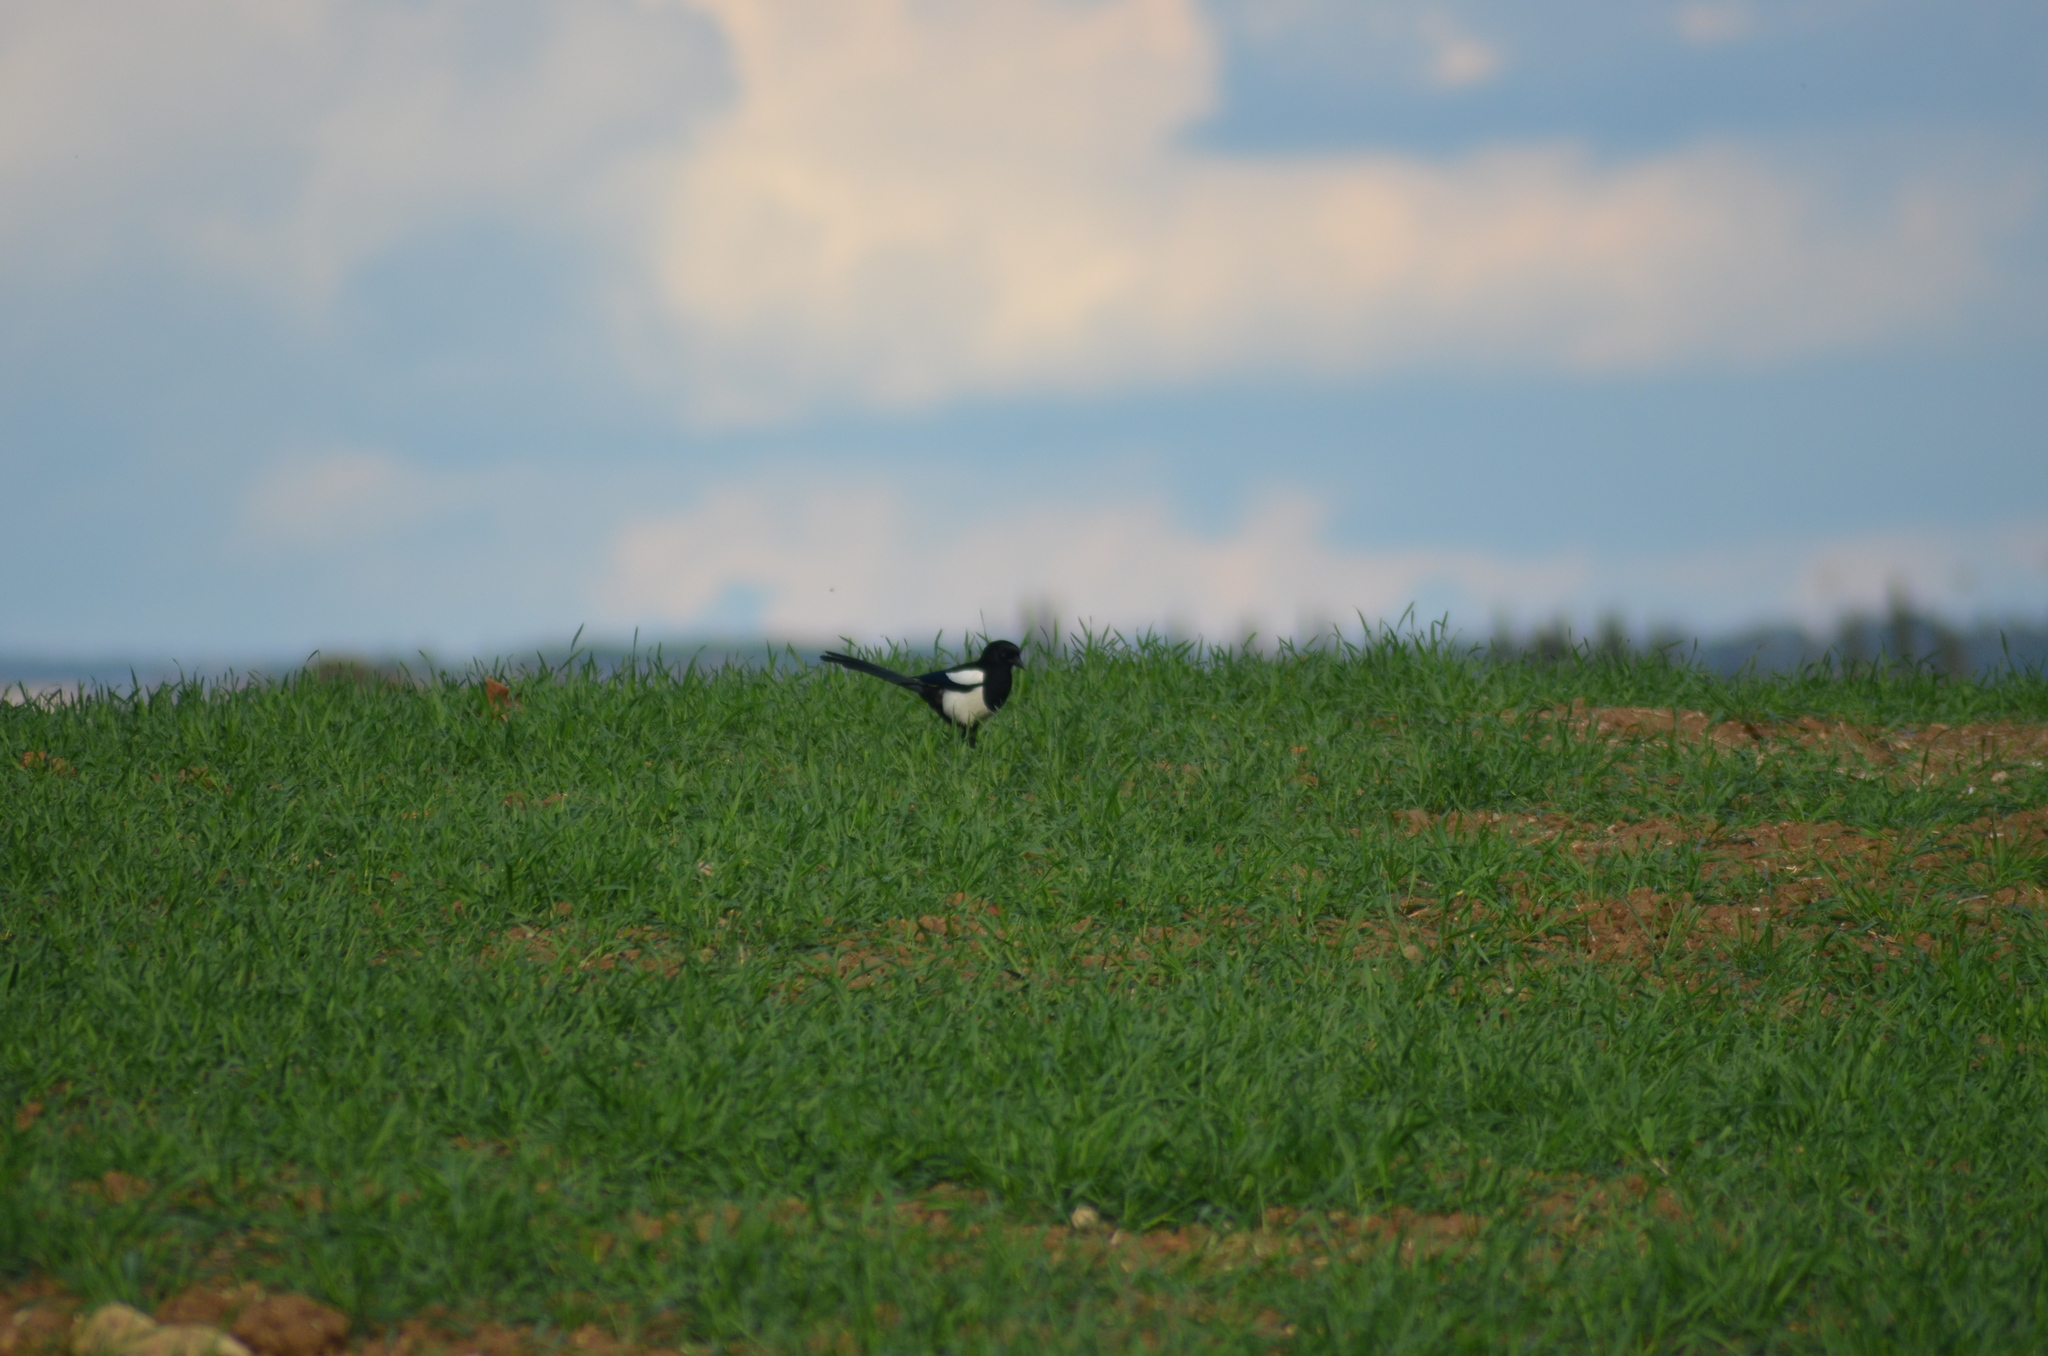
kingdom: Animalia
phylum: Chordata
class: Aves
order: Passeriformes
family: Corvidae
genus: Pica
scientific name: Pica pica
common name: Eurasian magpie
